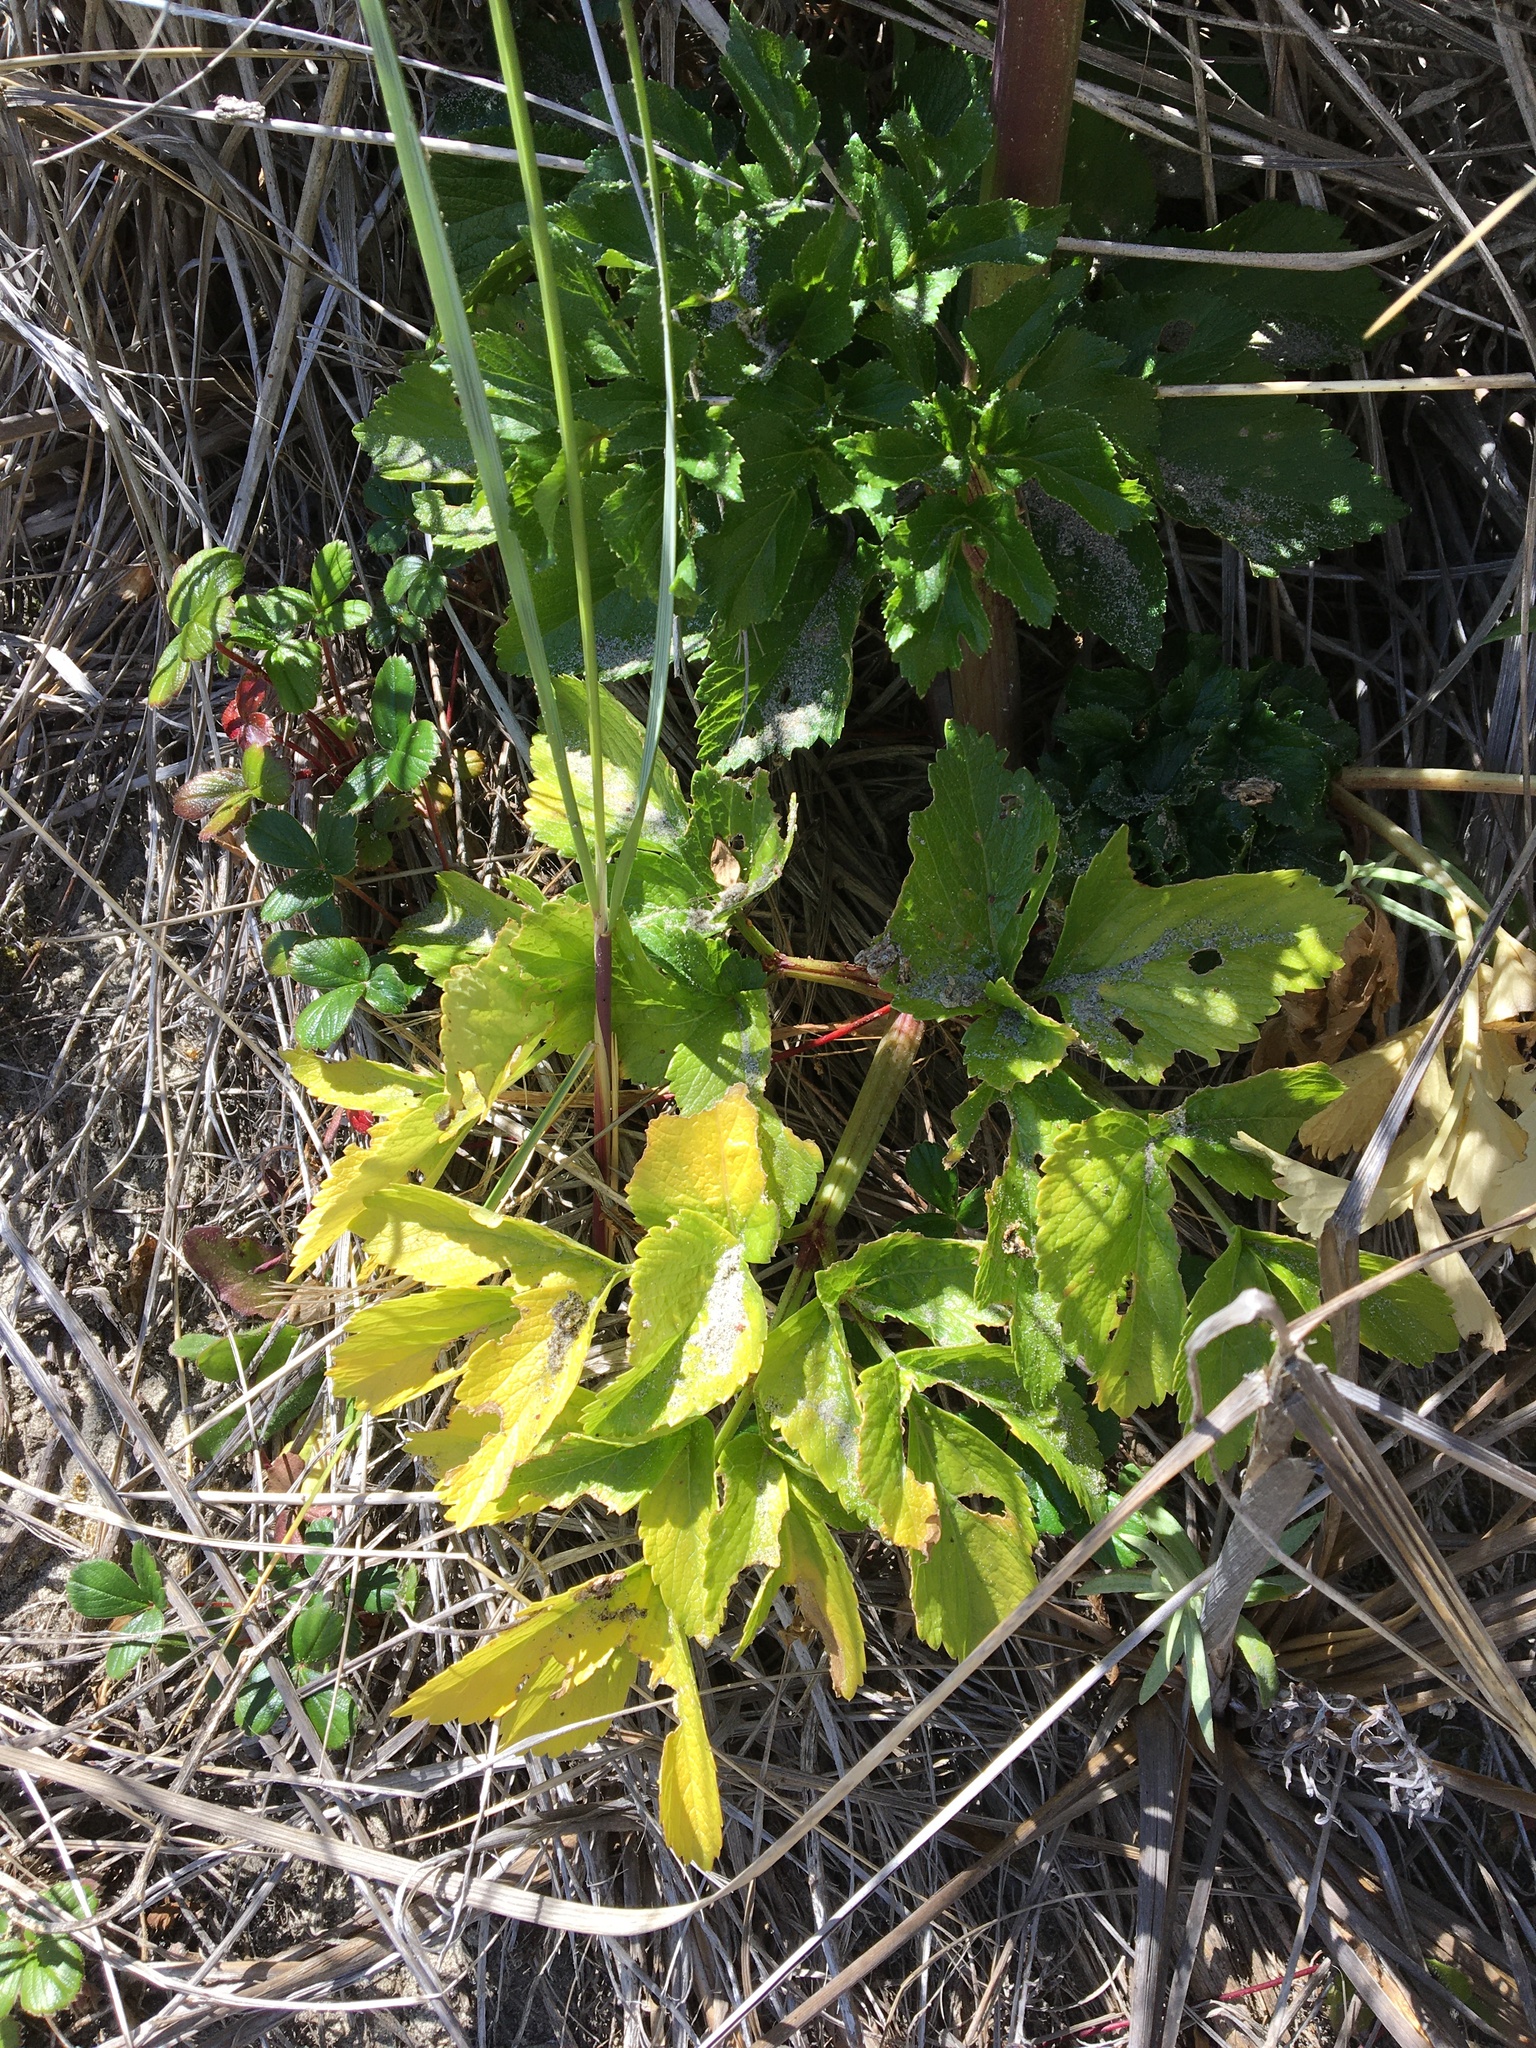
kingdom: Plantae
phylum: Tracheophyta
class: Magnoliopsida
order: Apiales
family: Apiaceae
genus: Angelica
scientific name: Angelica lucida
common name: Seabeach angelica
